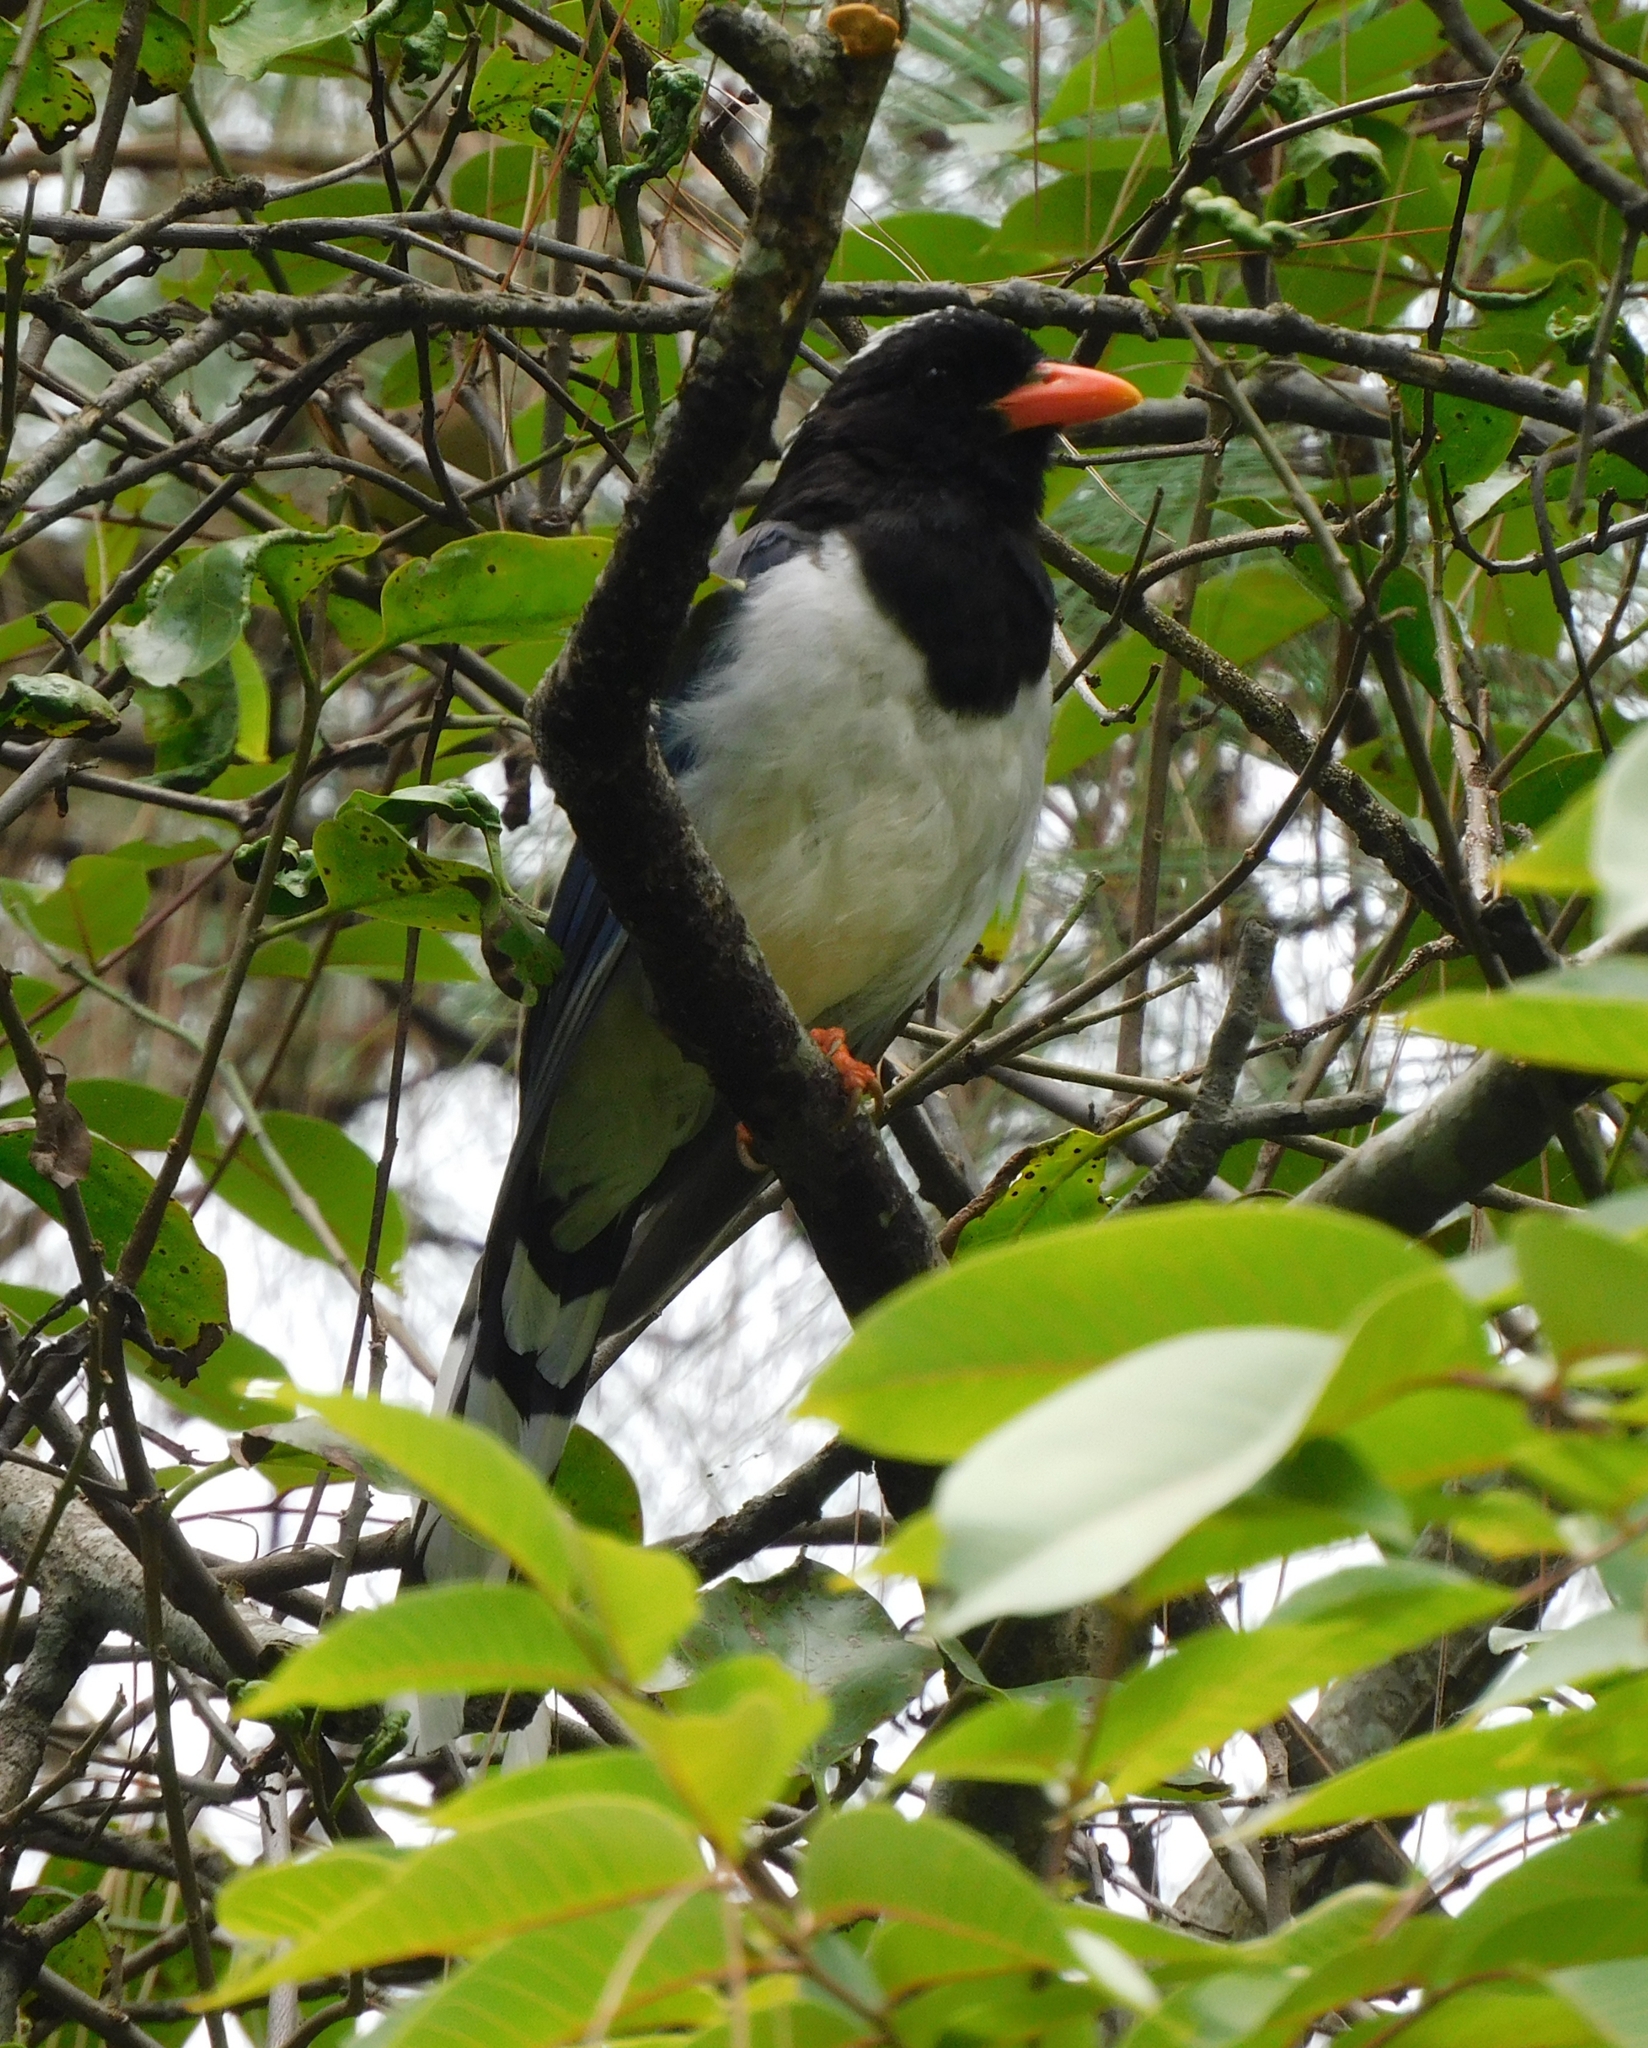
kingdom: Animalia
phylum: Chordata
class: Aves
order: Passeriformes
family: Corvidae
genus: Urocissa
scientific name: Urocissa erythroryncha
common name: Red-billed blue magpie
